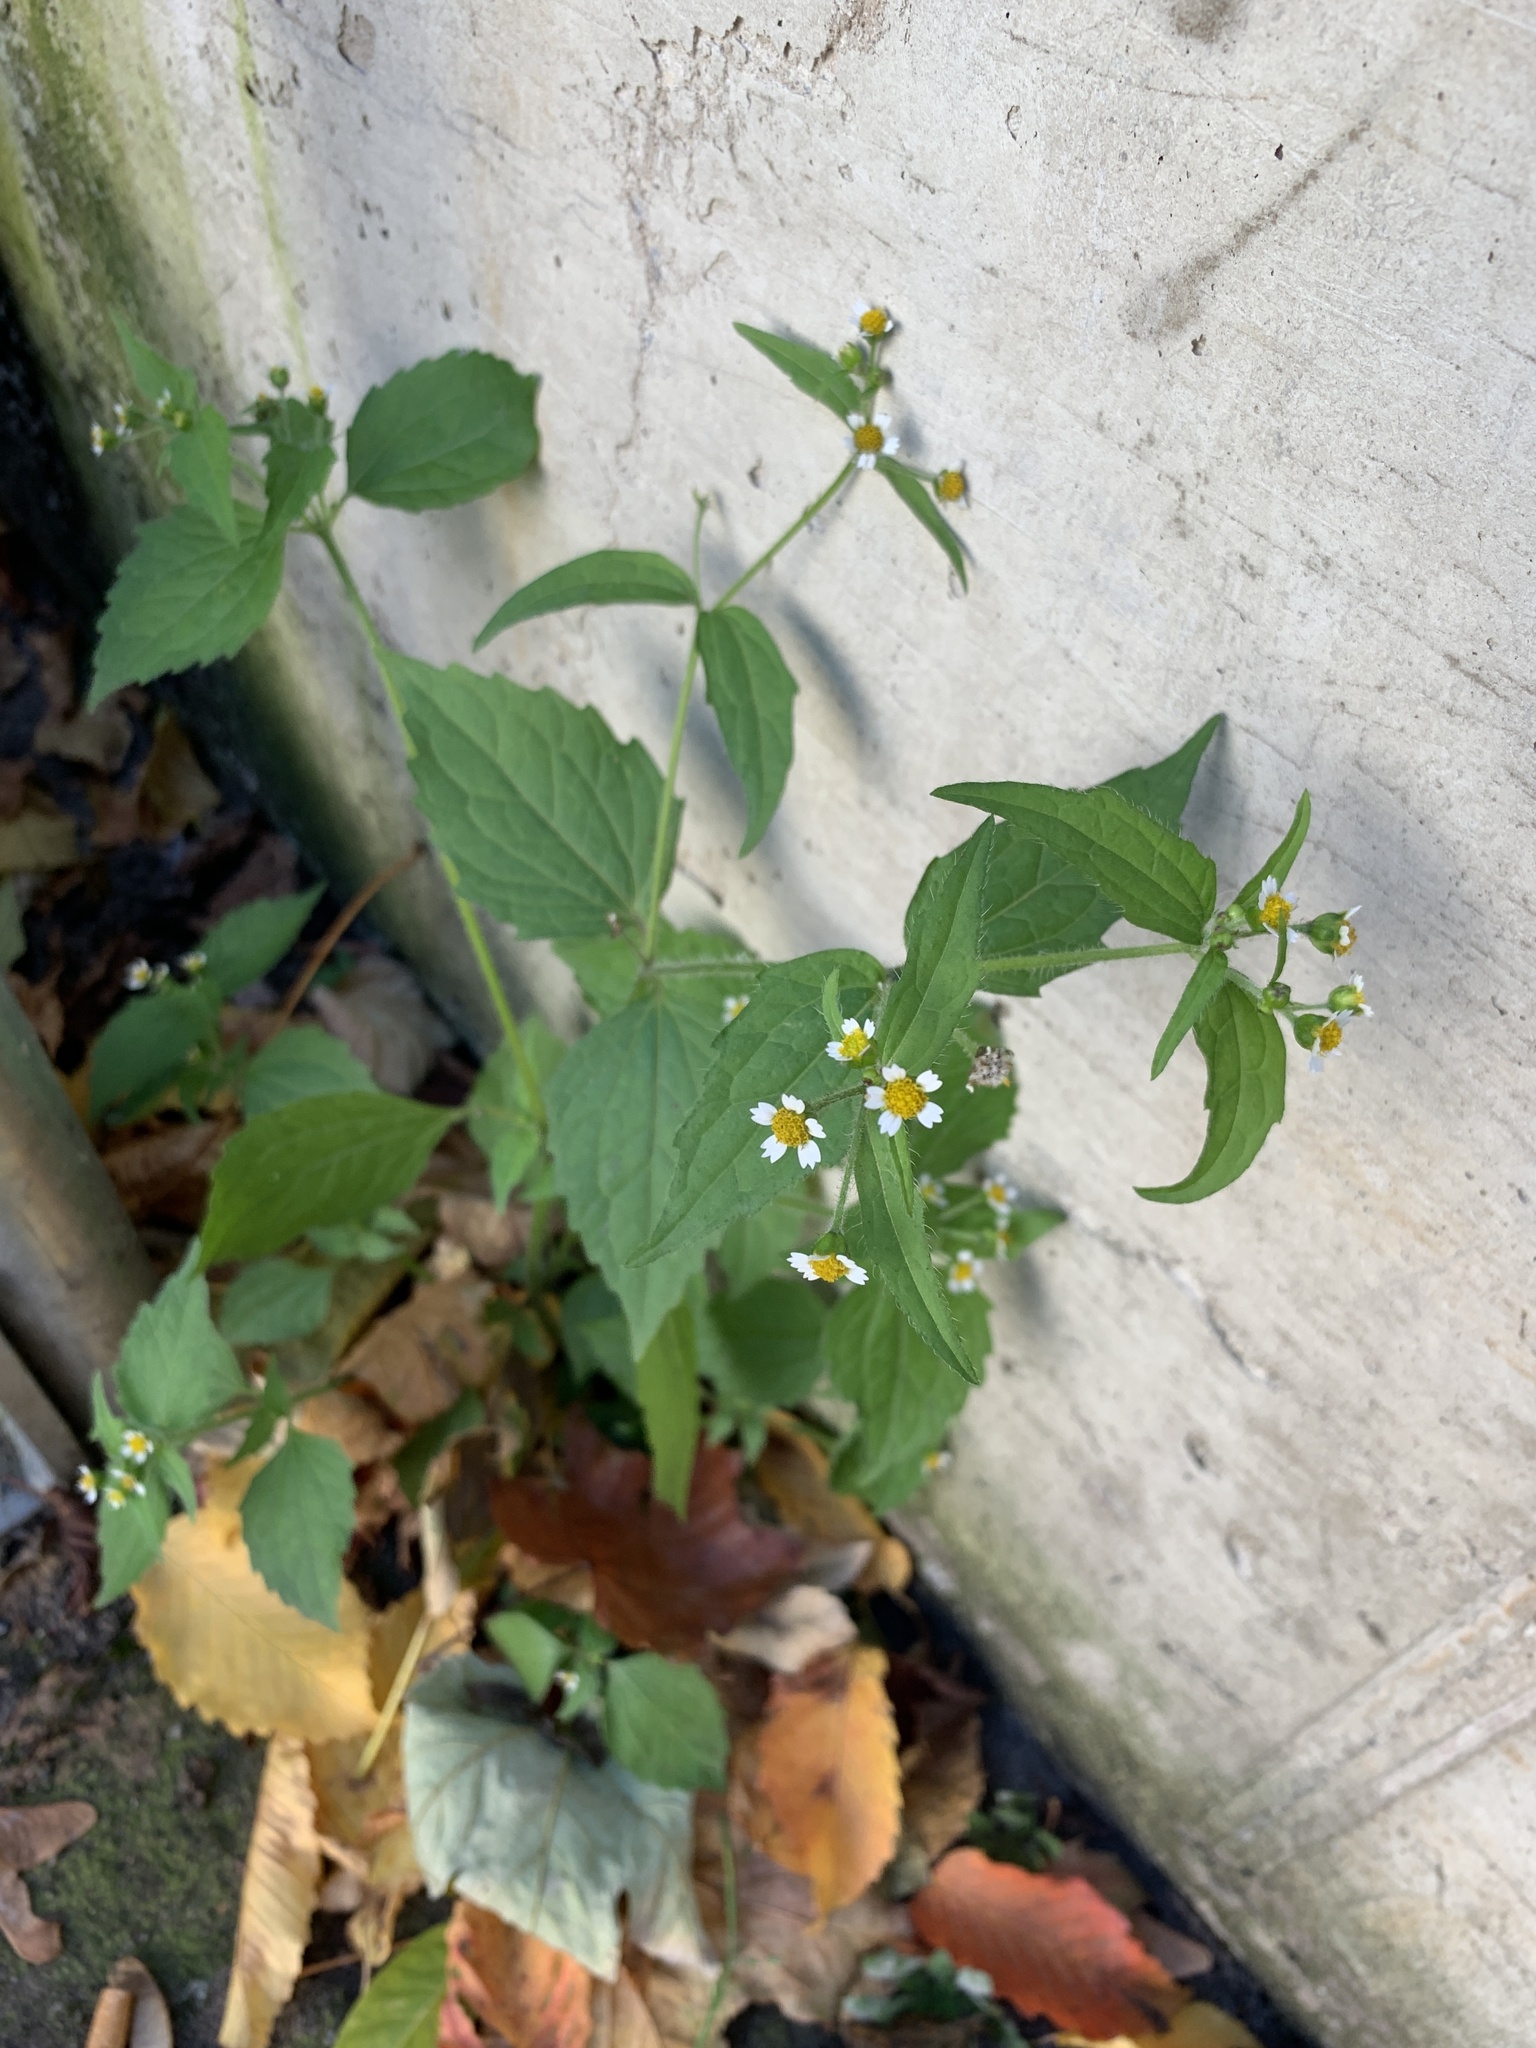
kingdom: Plantae
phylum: Tracheophyta
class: Magnoliopsida
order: Asterales
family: Asteraceae
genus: Galinsoga
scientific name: Galinsoga quadriradiata
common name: Shaggy soldier
